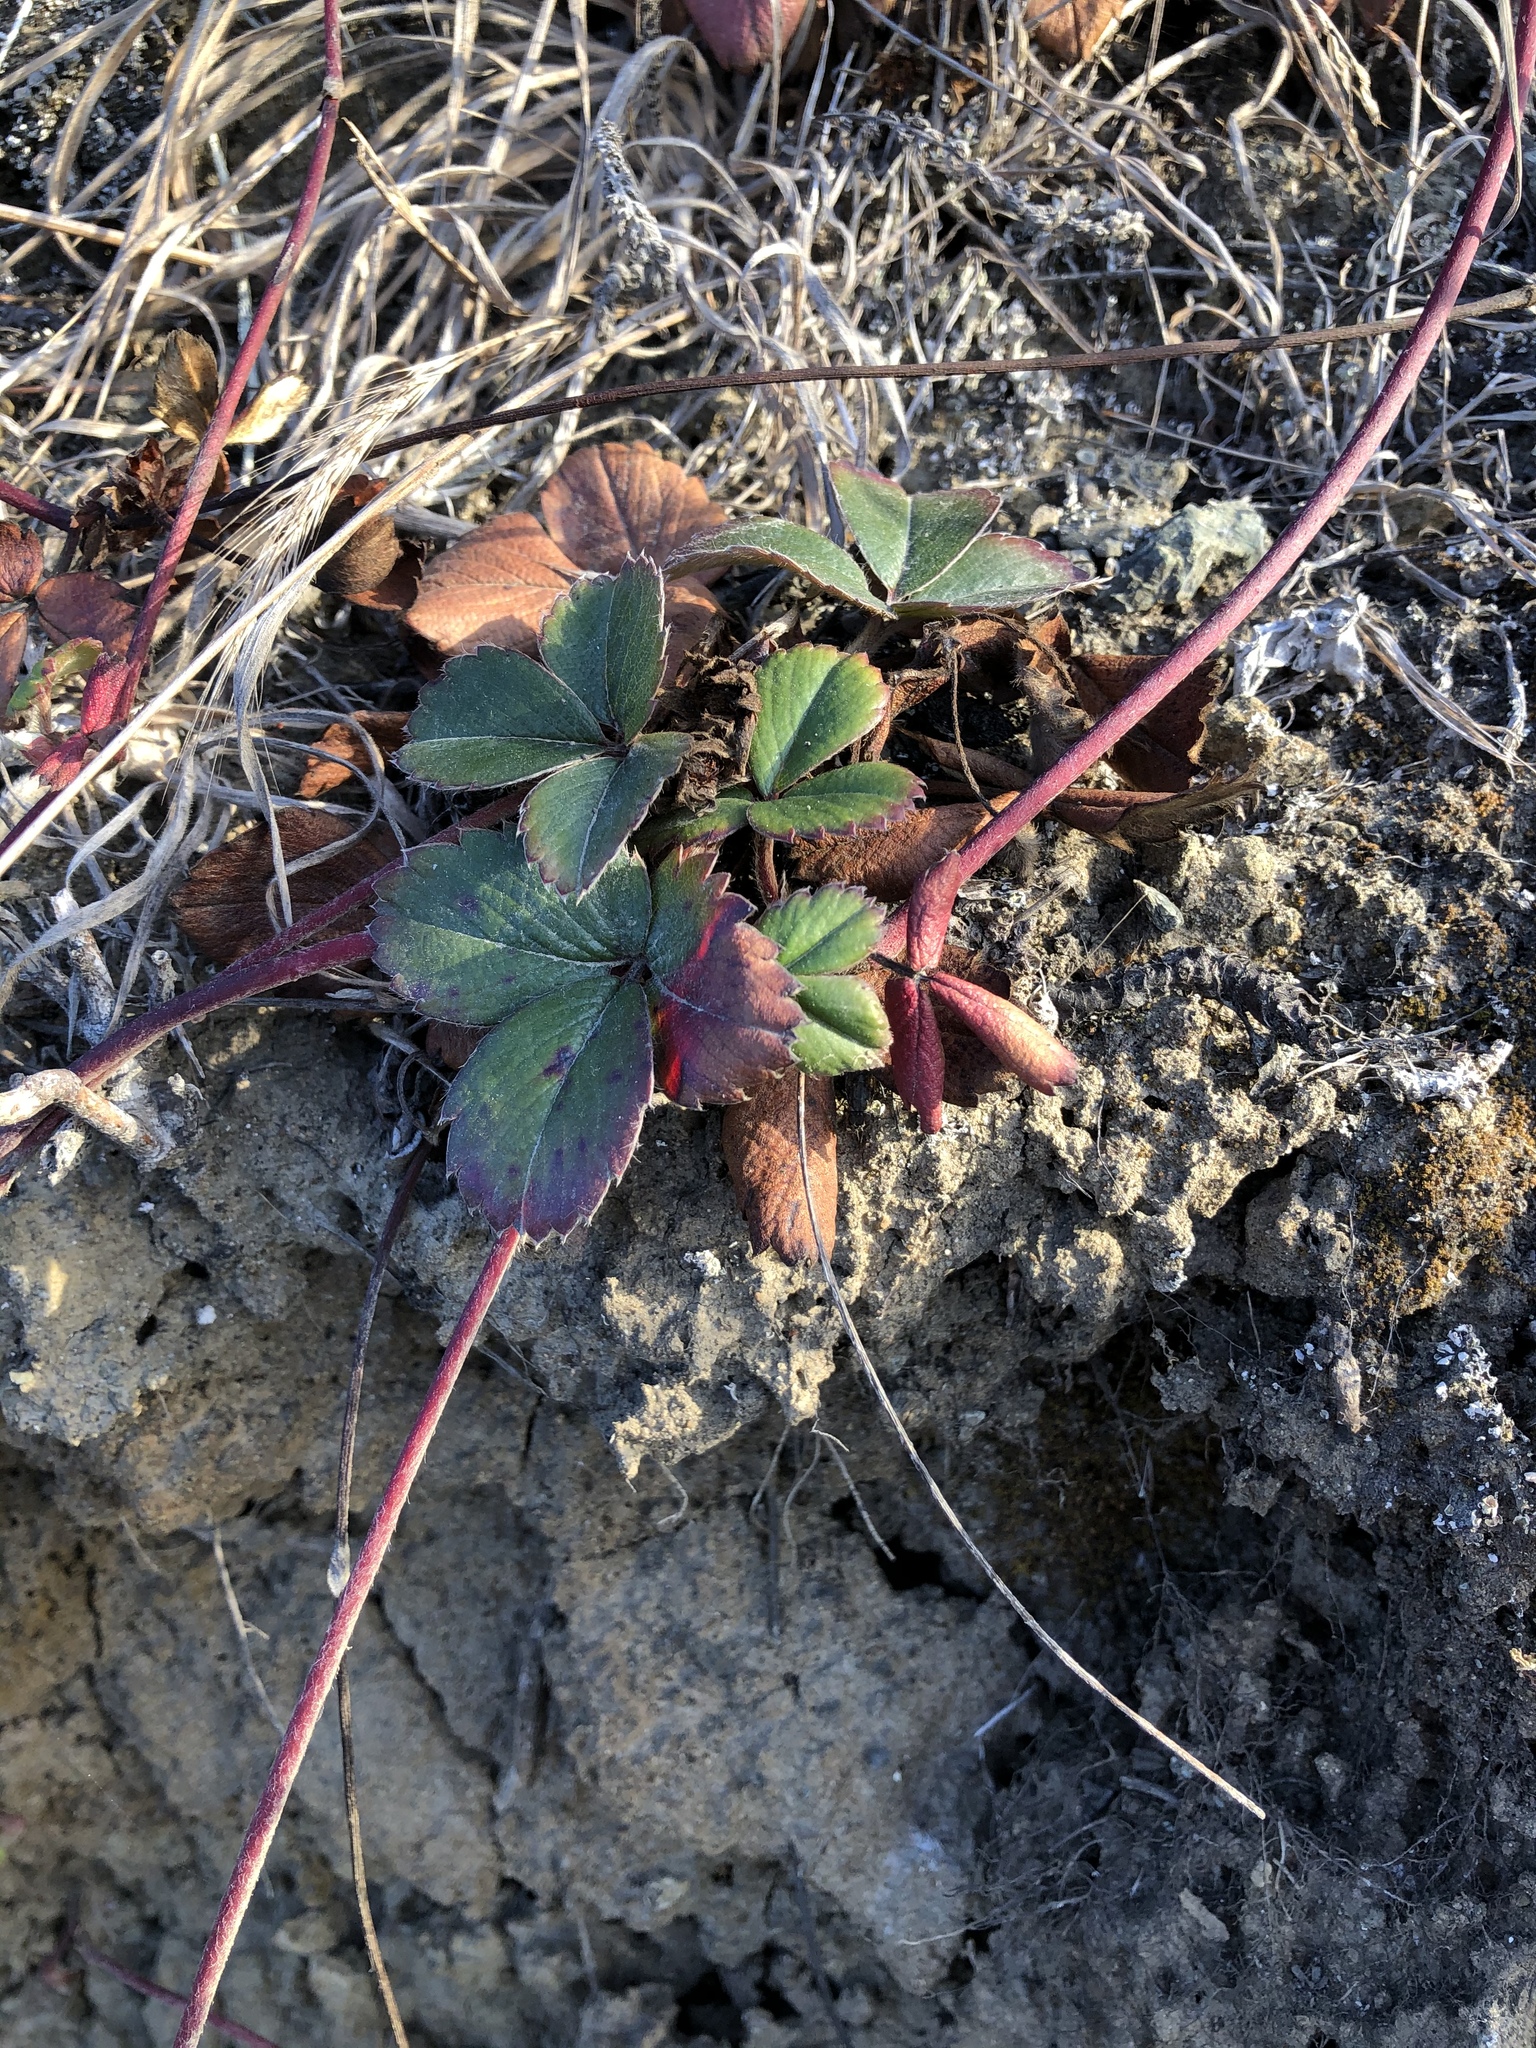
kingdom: Plantae
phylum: Tracheophyta
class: Magnoliopsida
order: Rosales
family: Rosaceae
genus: Fragaria
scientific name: Fragaria chiloensis
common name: Beach strawberry
